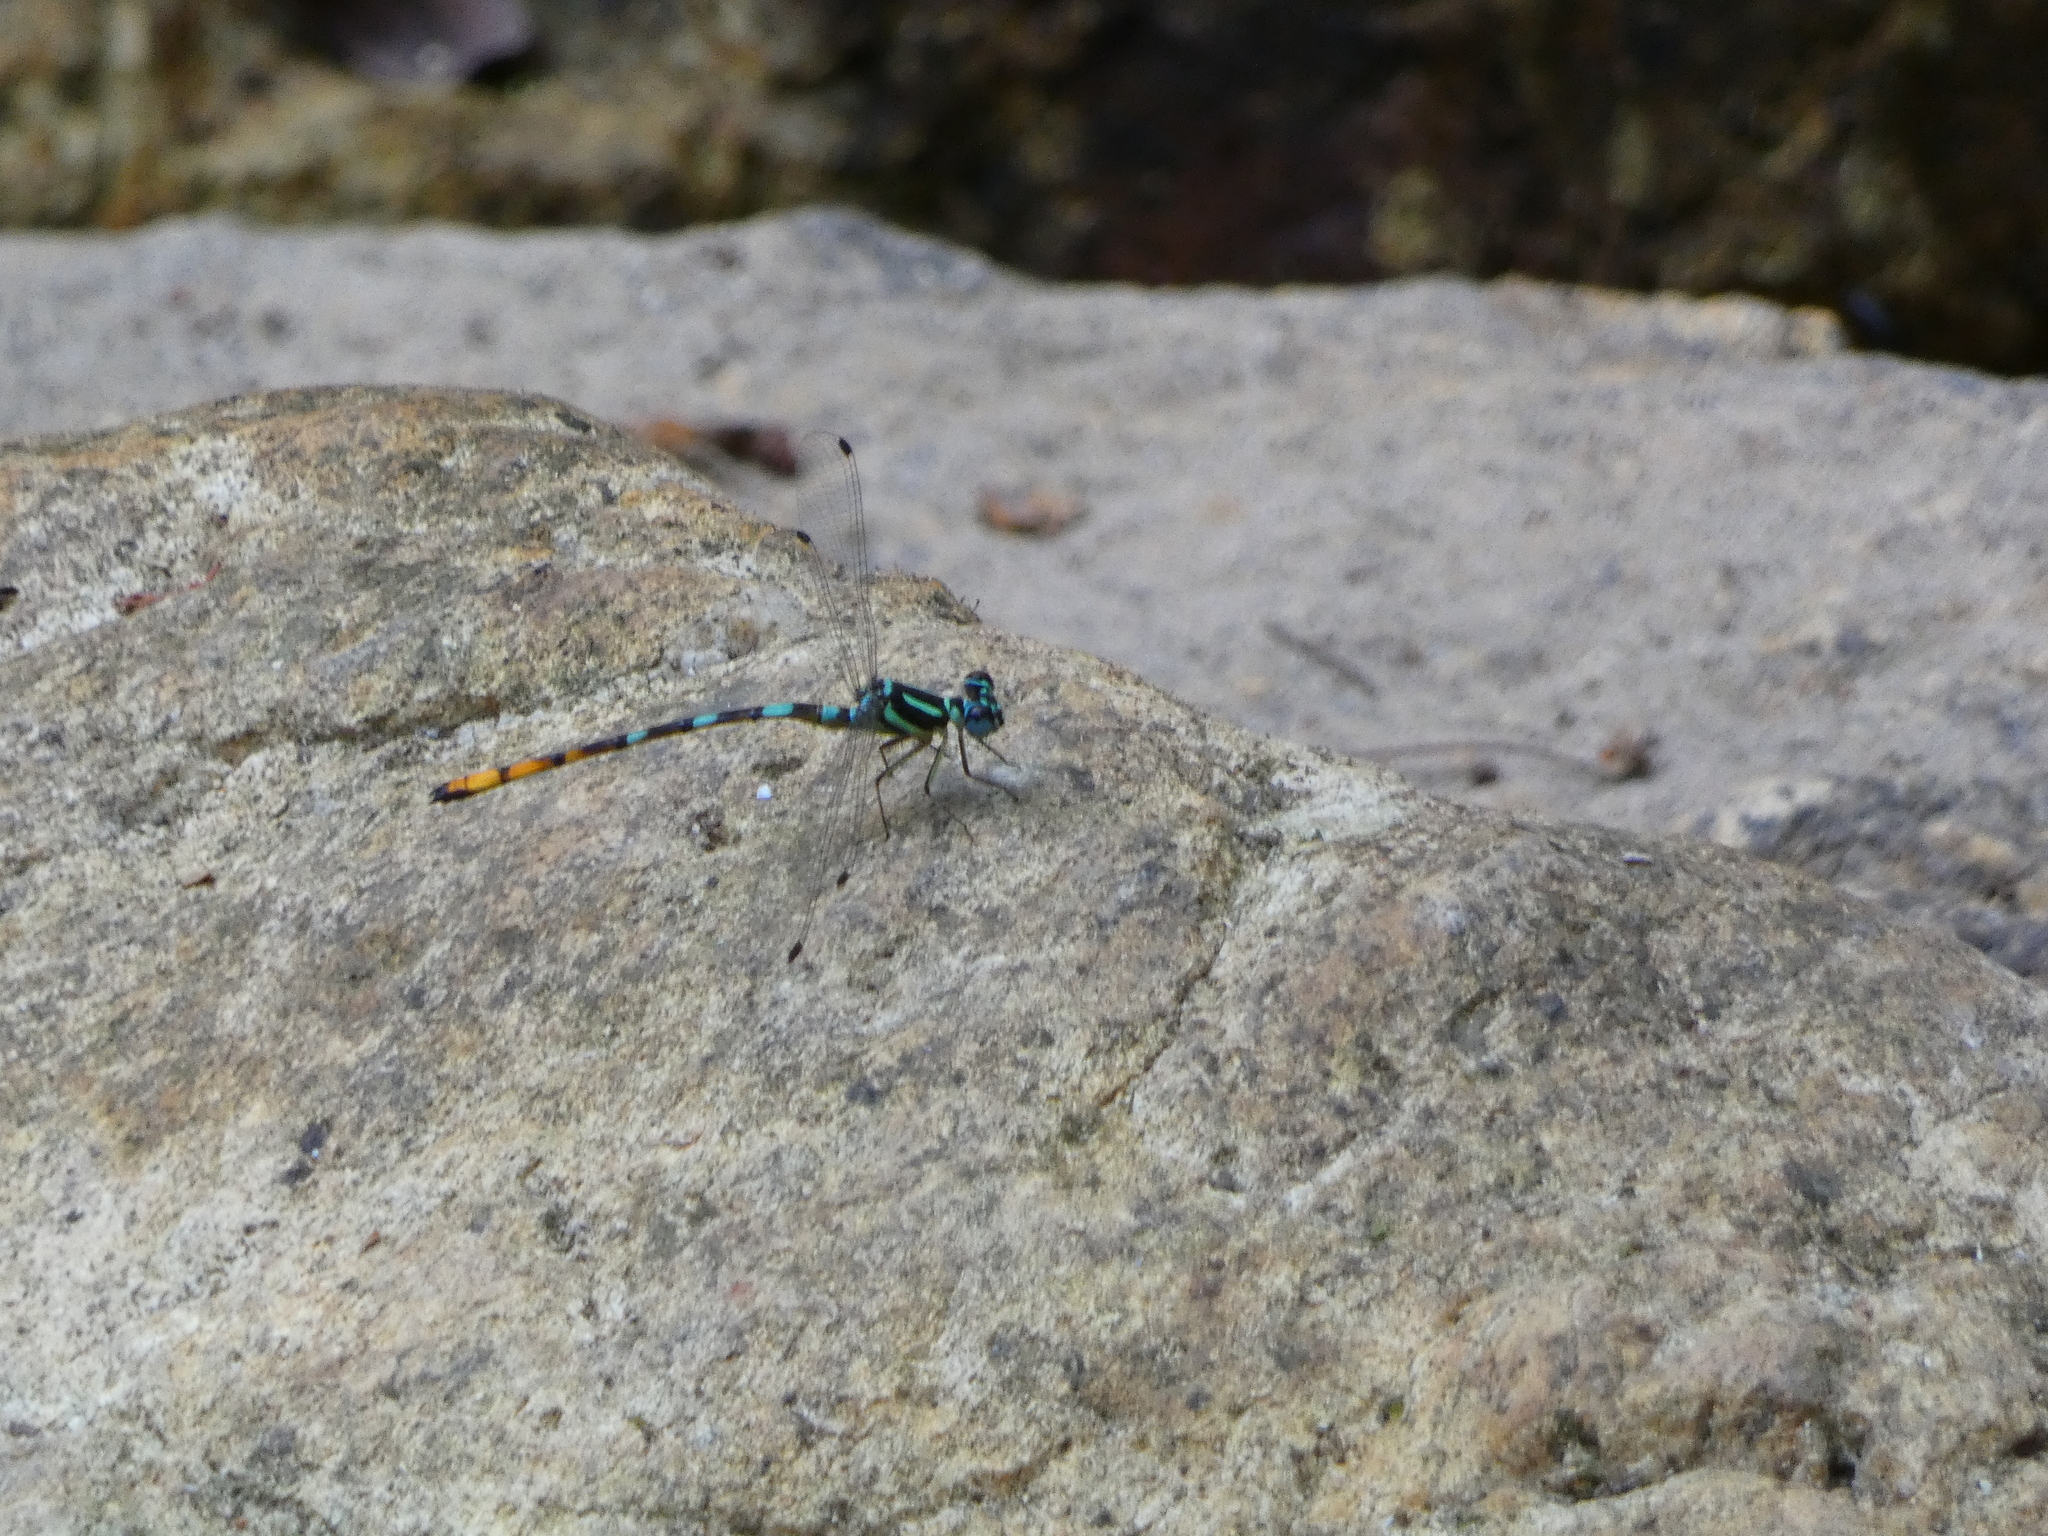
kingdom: Animalia
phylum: Arthropoda
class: Insecta
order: Odonata
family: Philosinidae
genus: Rhinagrion
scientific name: Rhinagrion viridatum
